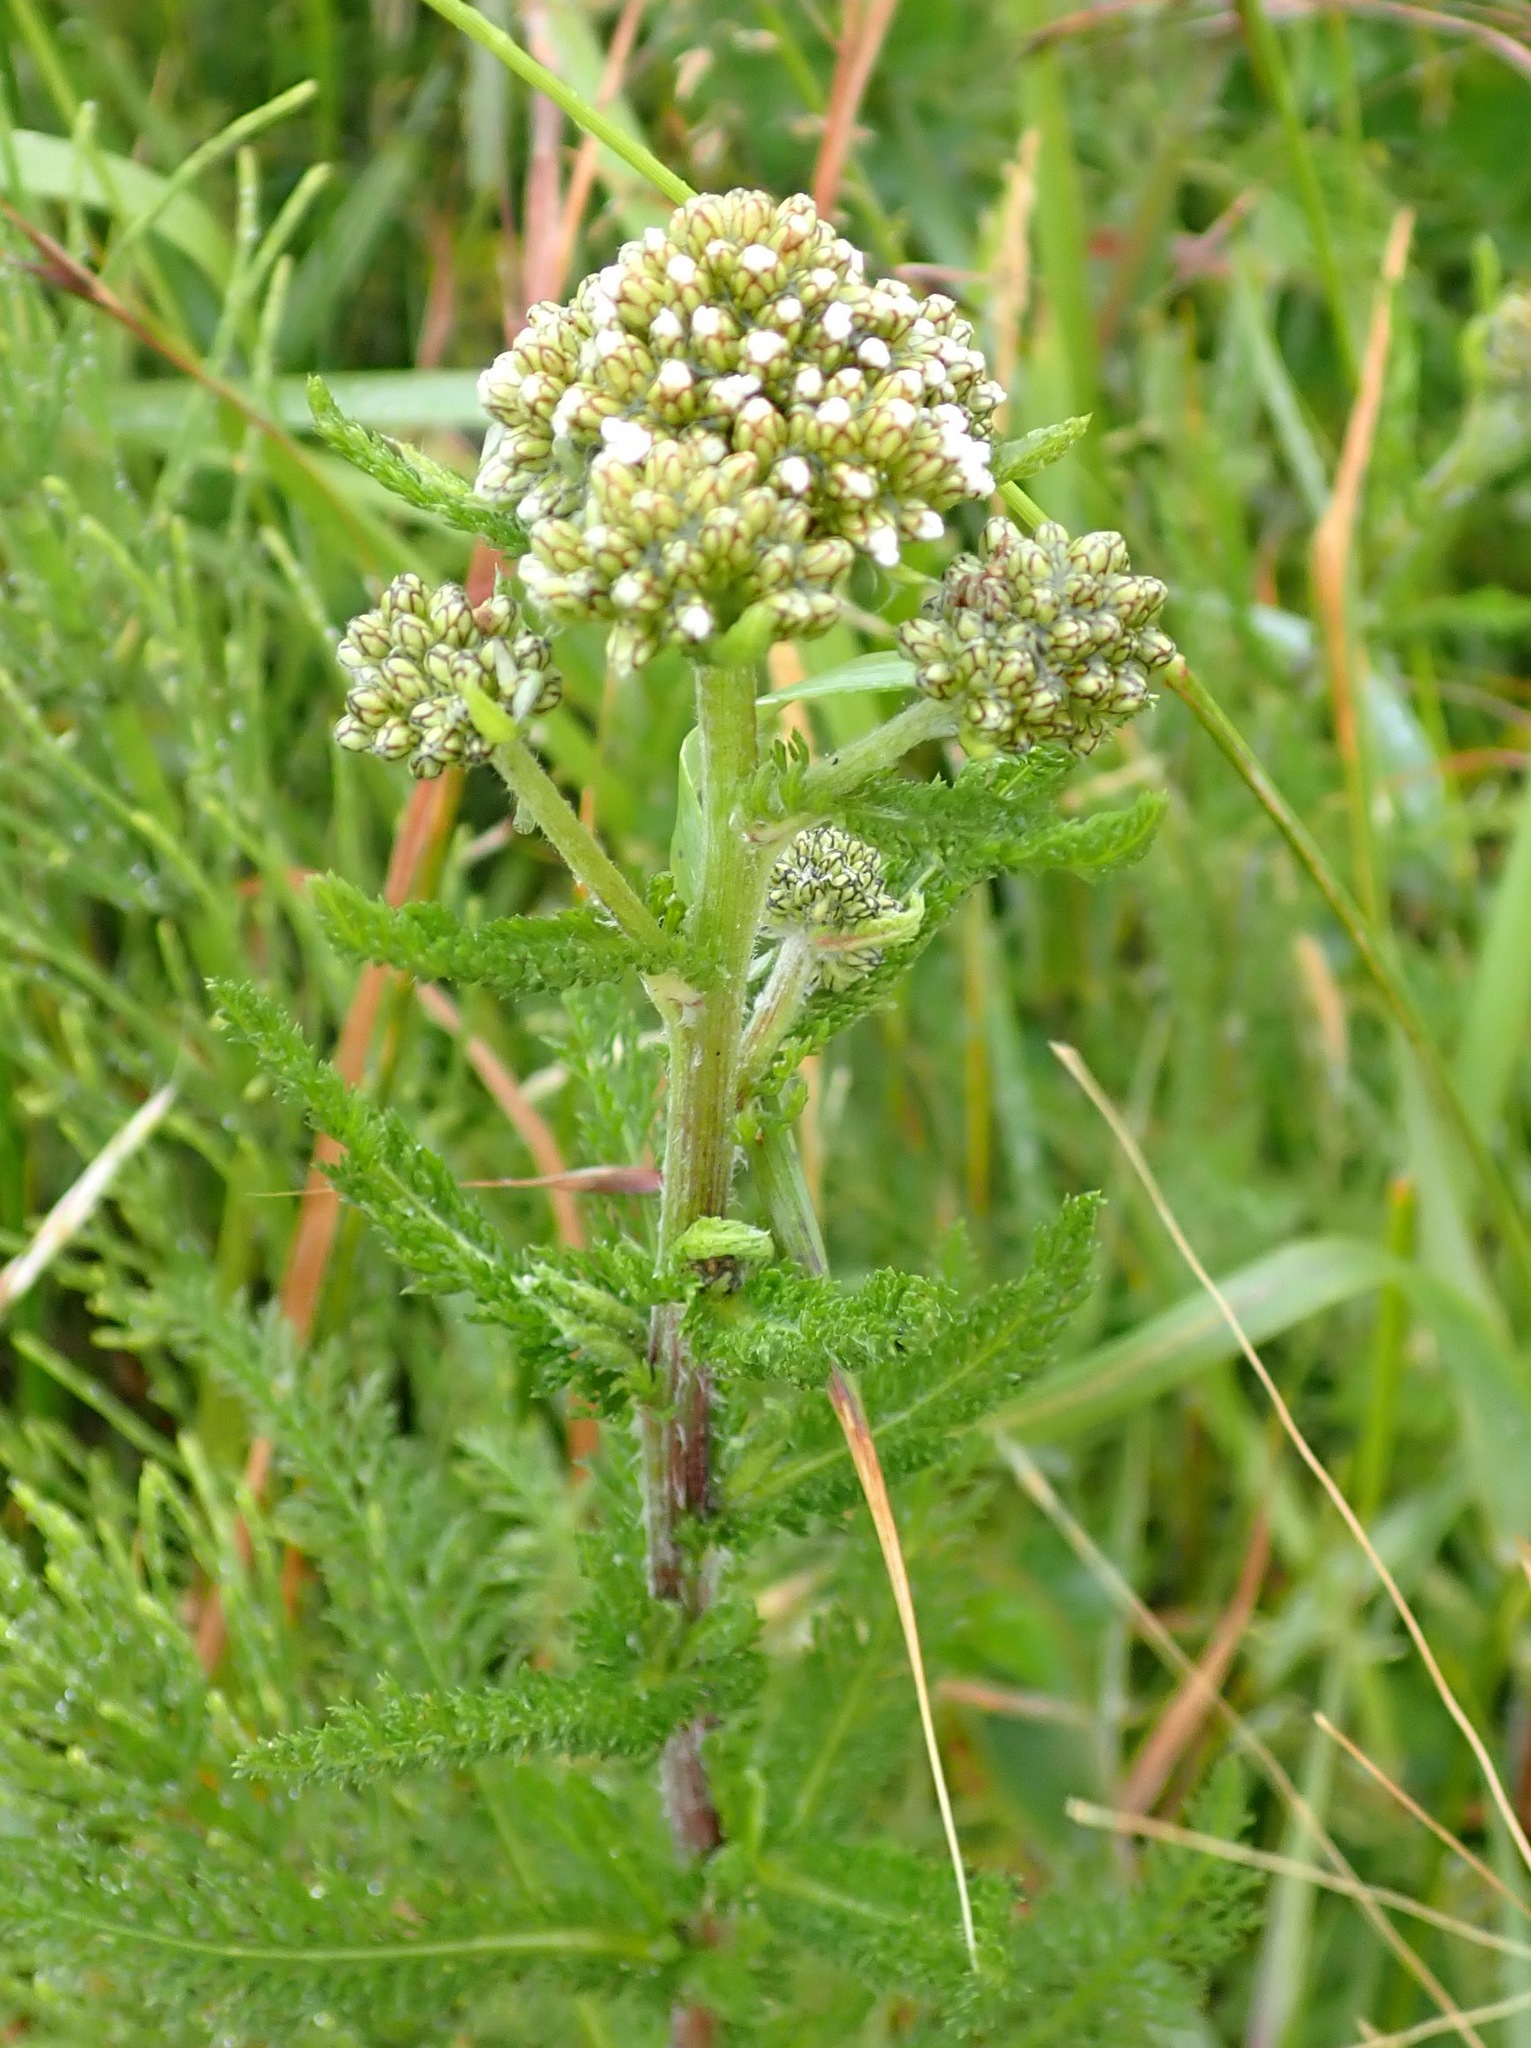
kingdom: Plantae
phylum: Tracheophyta
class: Magnoliopsida
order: Asterales
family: Asteraceae
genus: Achillea
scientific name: Achillea millefolium
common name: Yarrow
